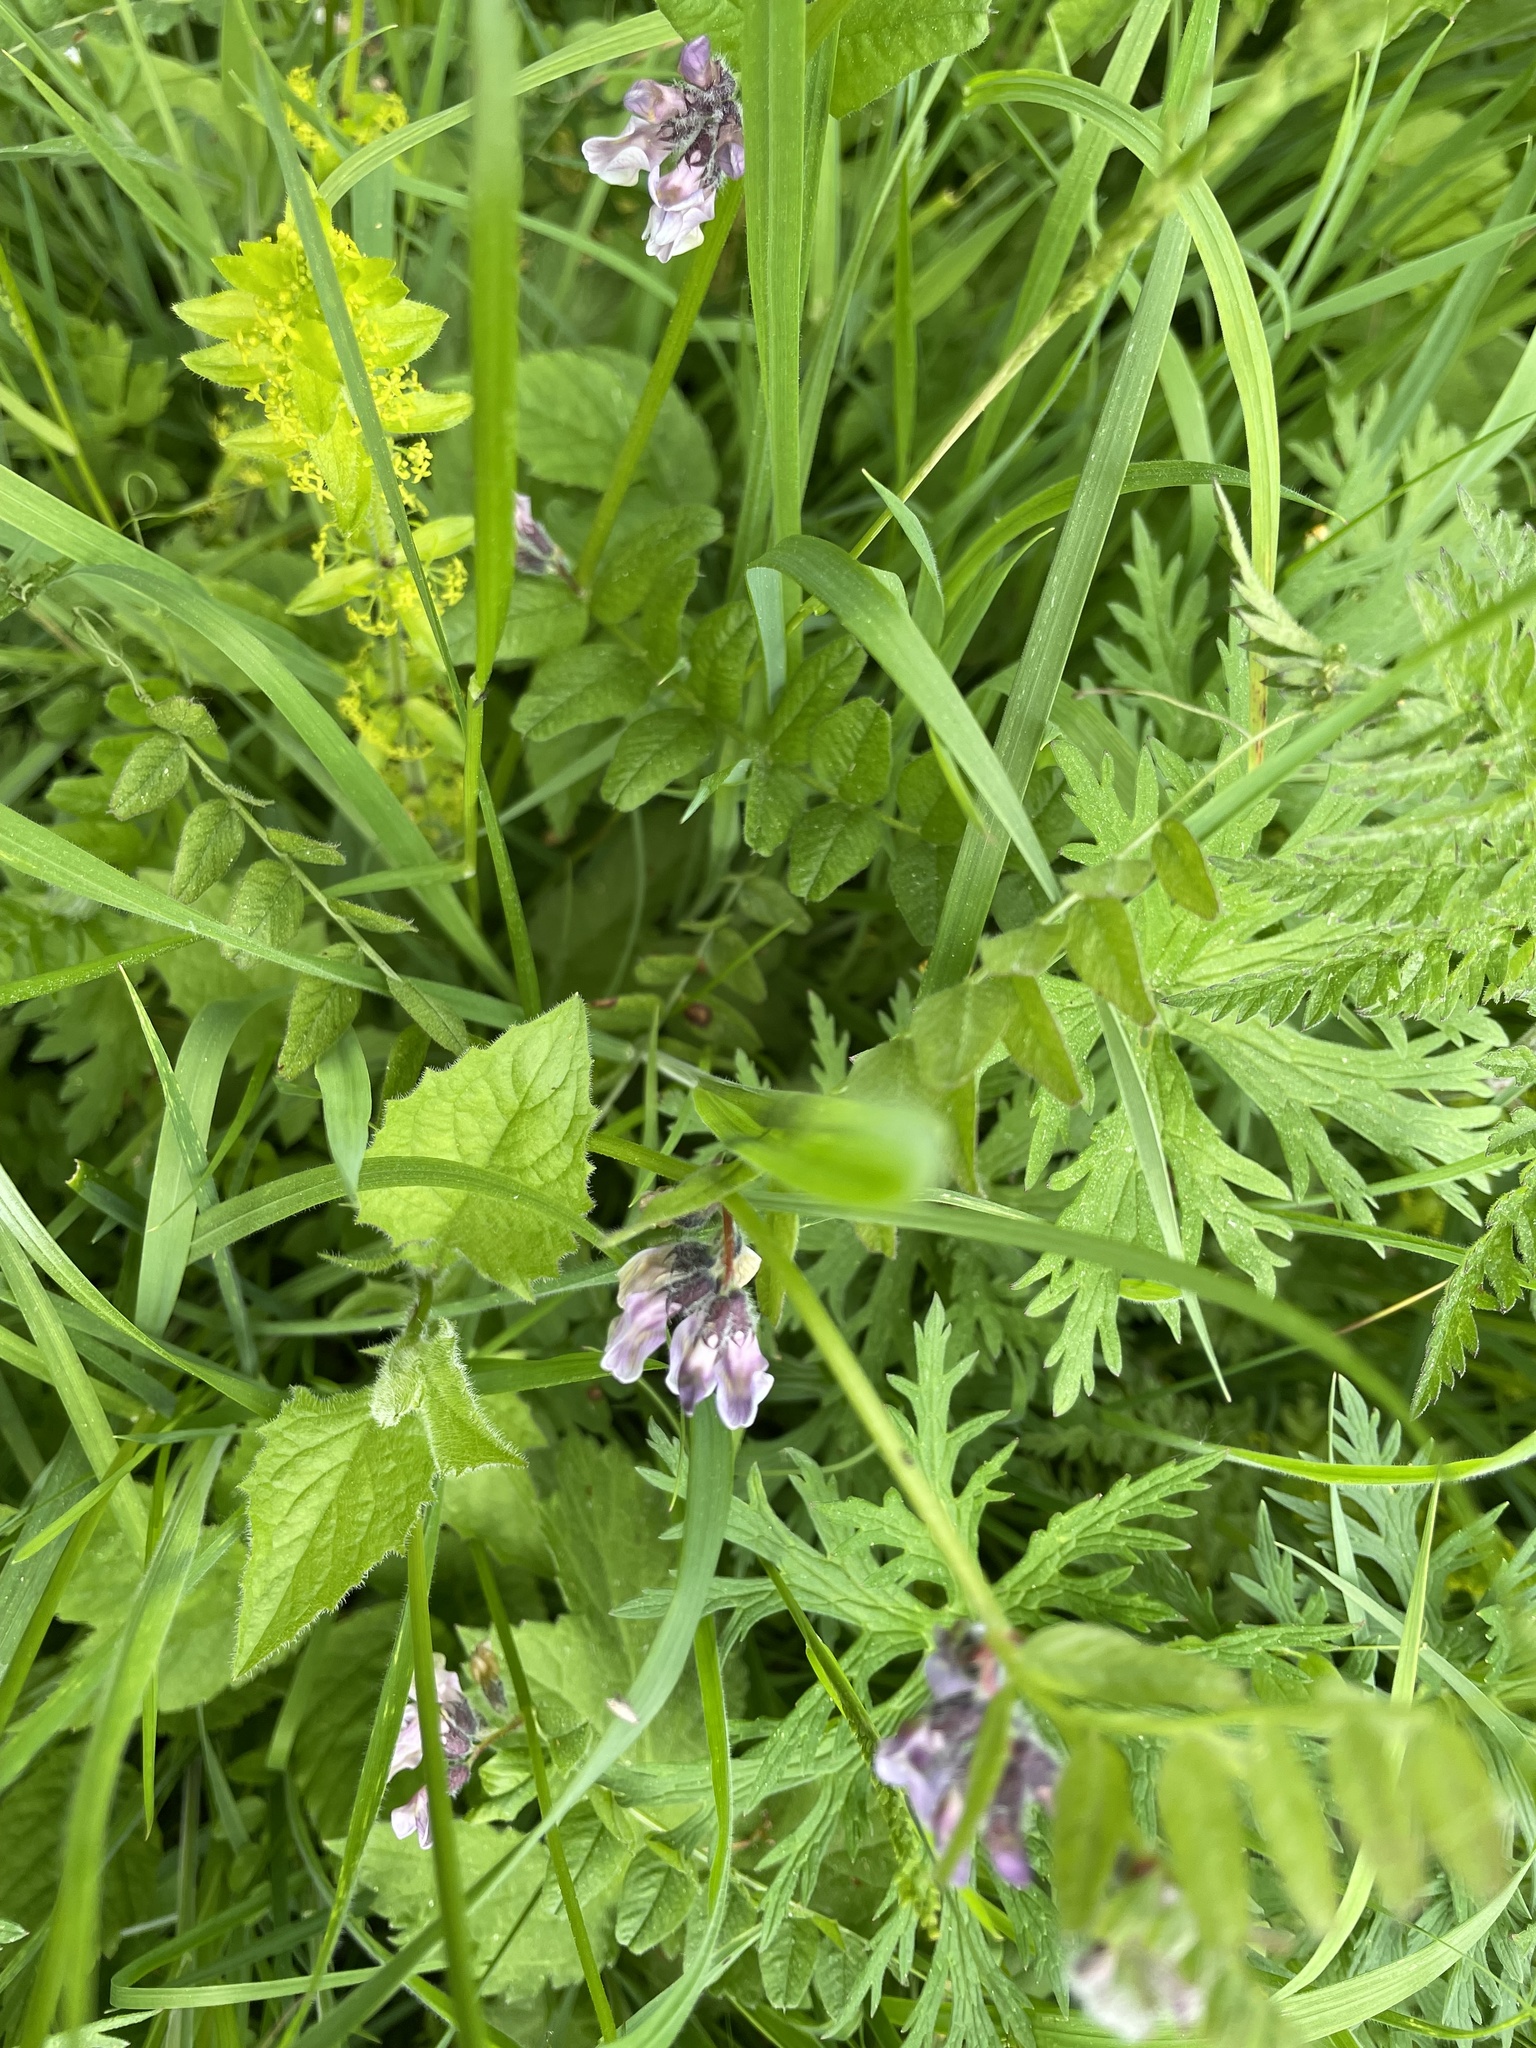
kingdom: Plantae
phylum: Tracheophyta
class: Magnoliopsida
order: Fabales
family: Fabaceae
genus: Vicia
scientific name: Vicia sepium
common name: Bush vetch
